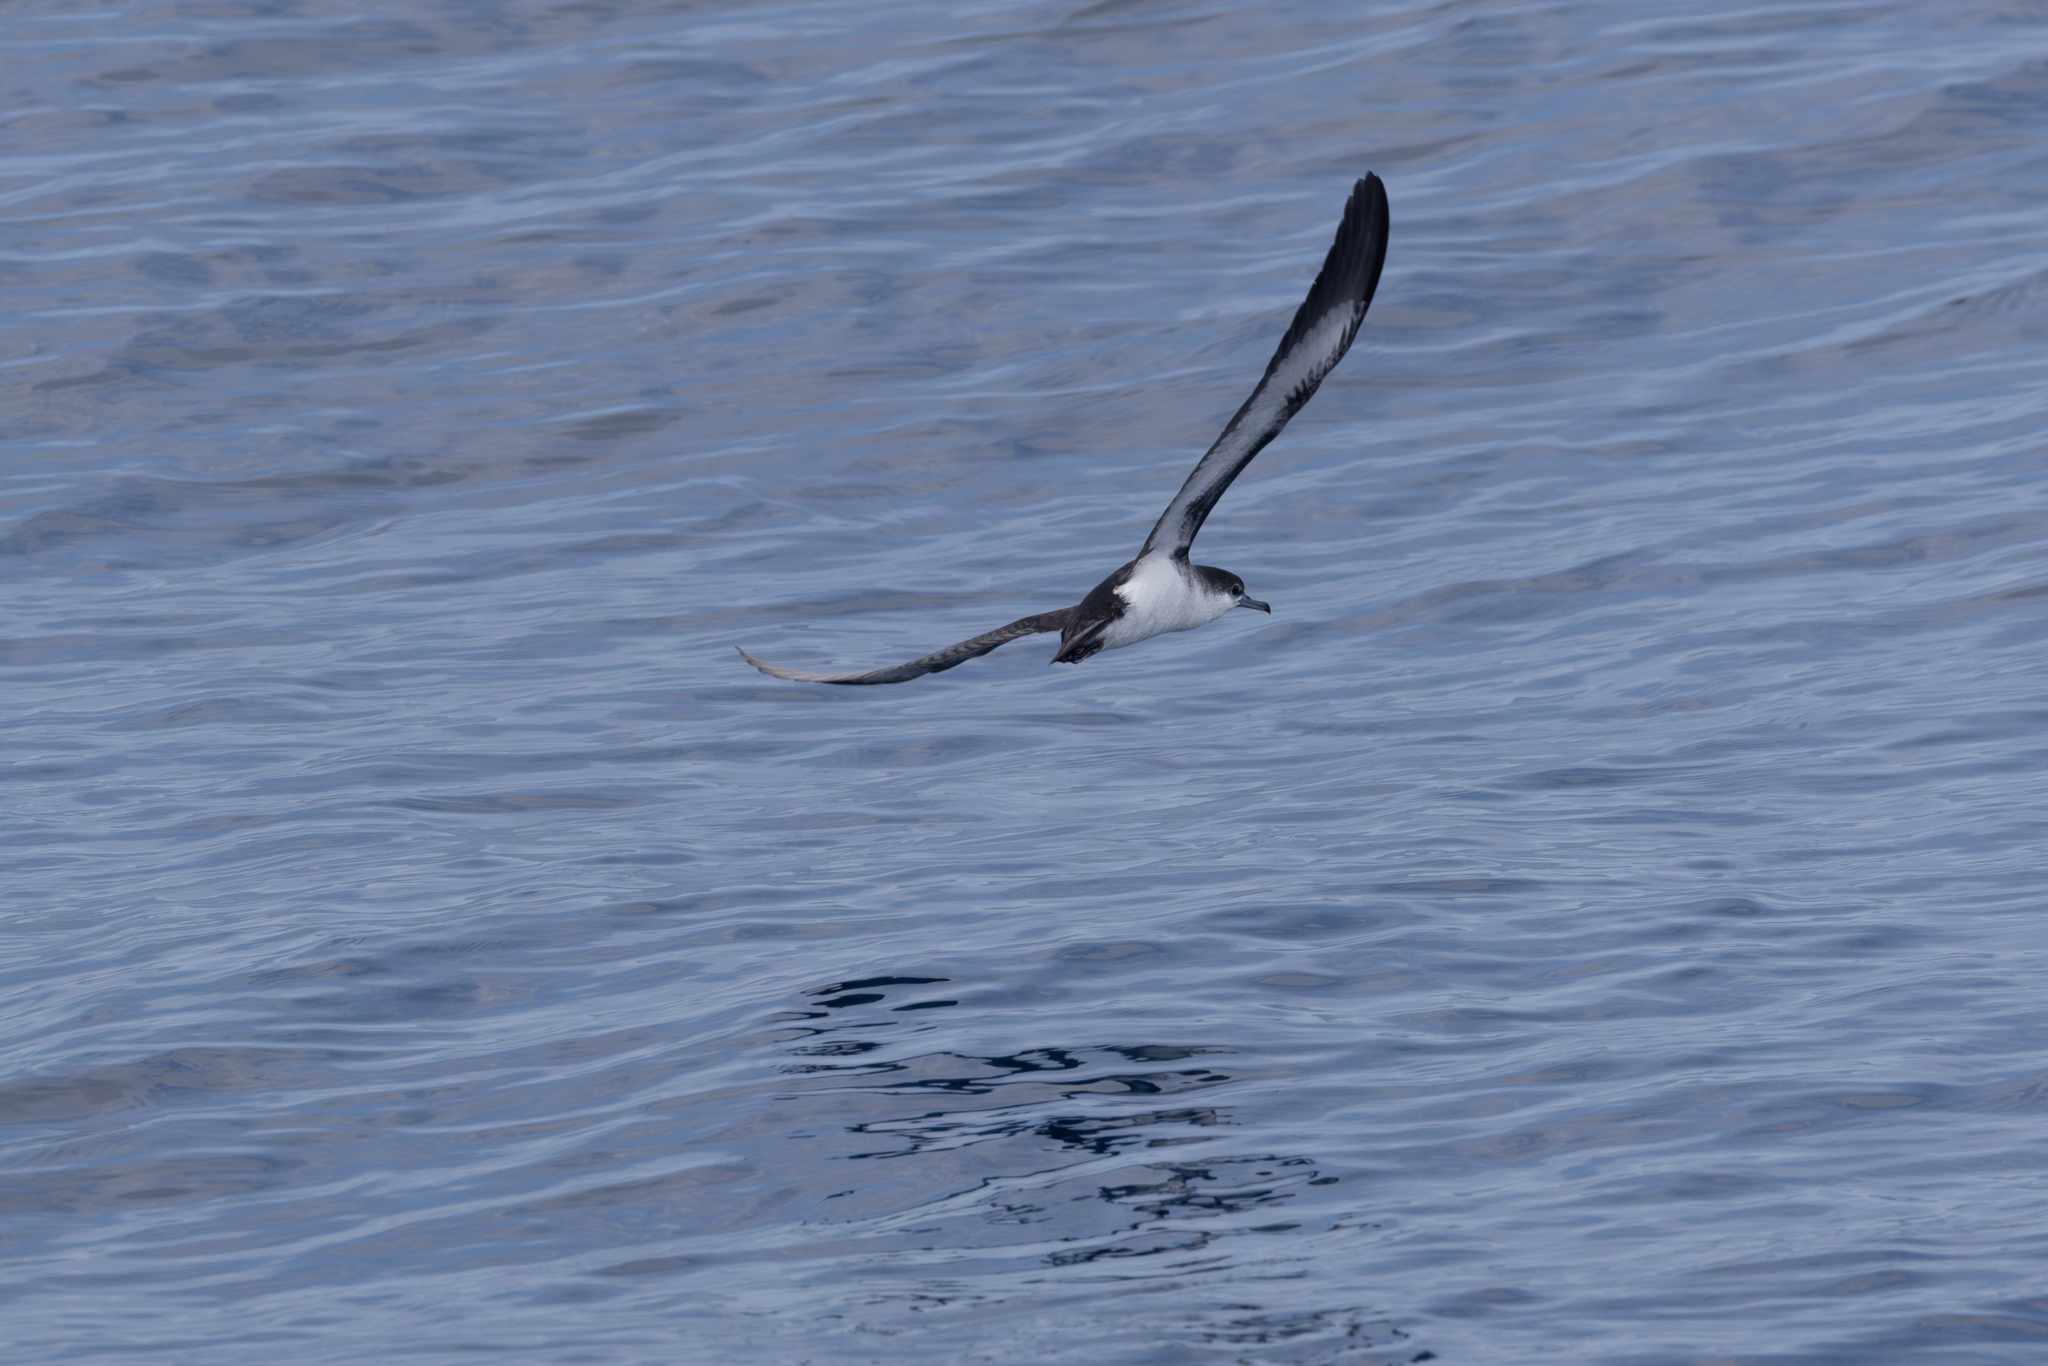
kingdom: Animalia
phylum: Chordata
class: Aves
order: Procellariiformes
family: Procellariidae
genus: Puffinus
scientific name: Puffinus lherminieri
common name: Audubon's shearwater
